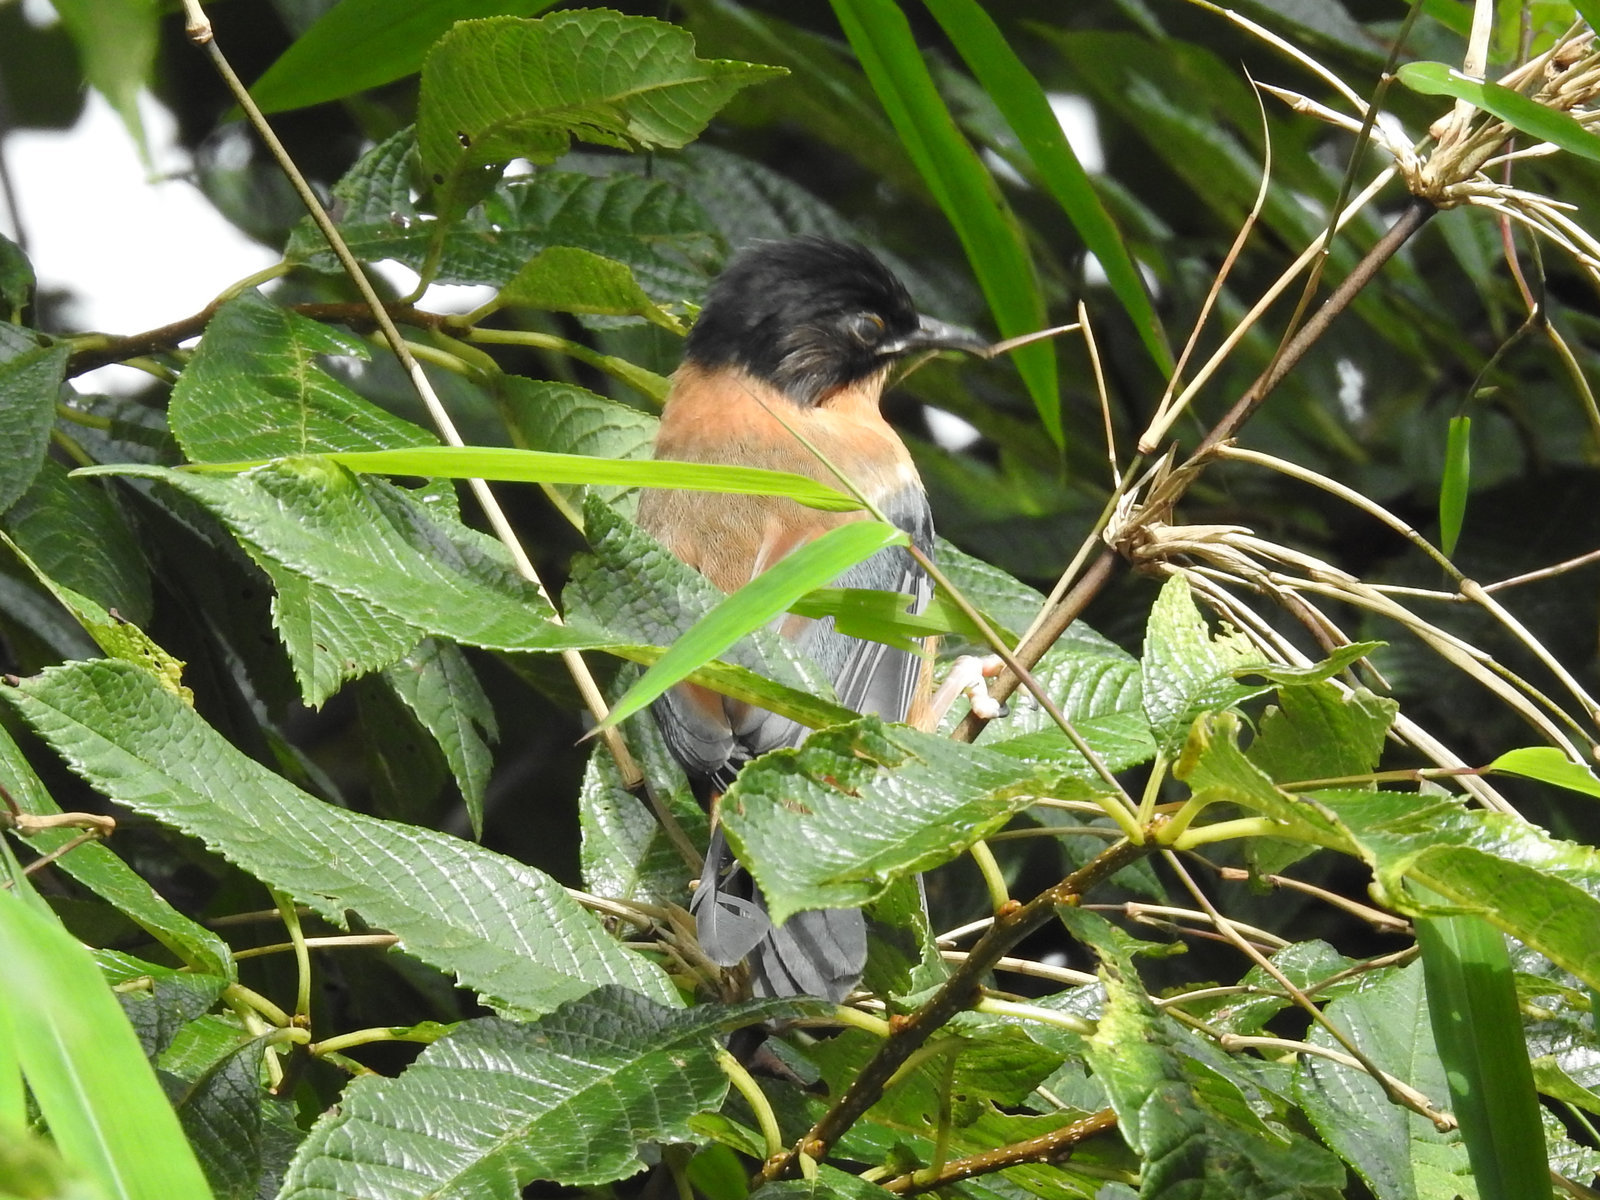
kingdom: Animalia
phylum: Chordata
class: Aves
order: Passeriformes
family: Leiothrichidae
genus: Heterophasia
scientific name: Heterophasia capistrata
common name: Rufous sibia
